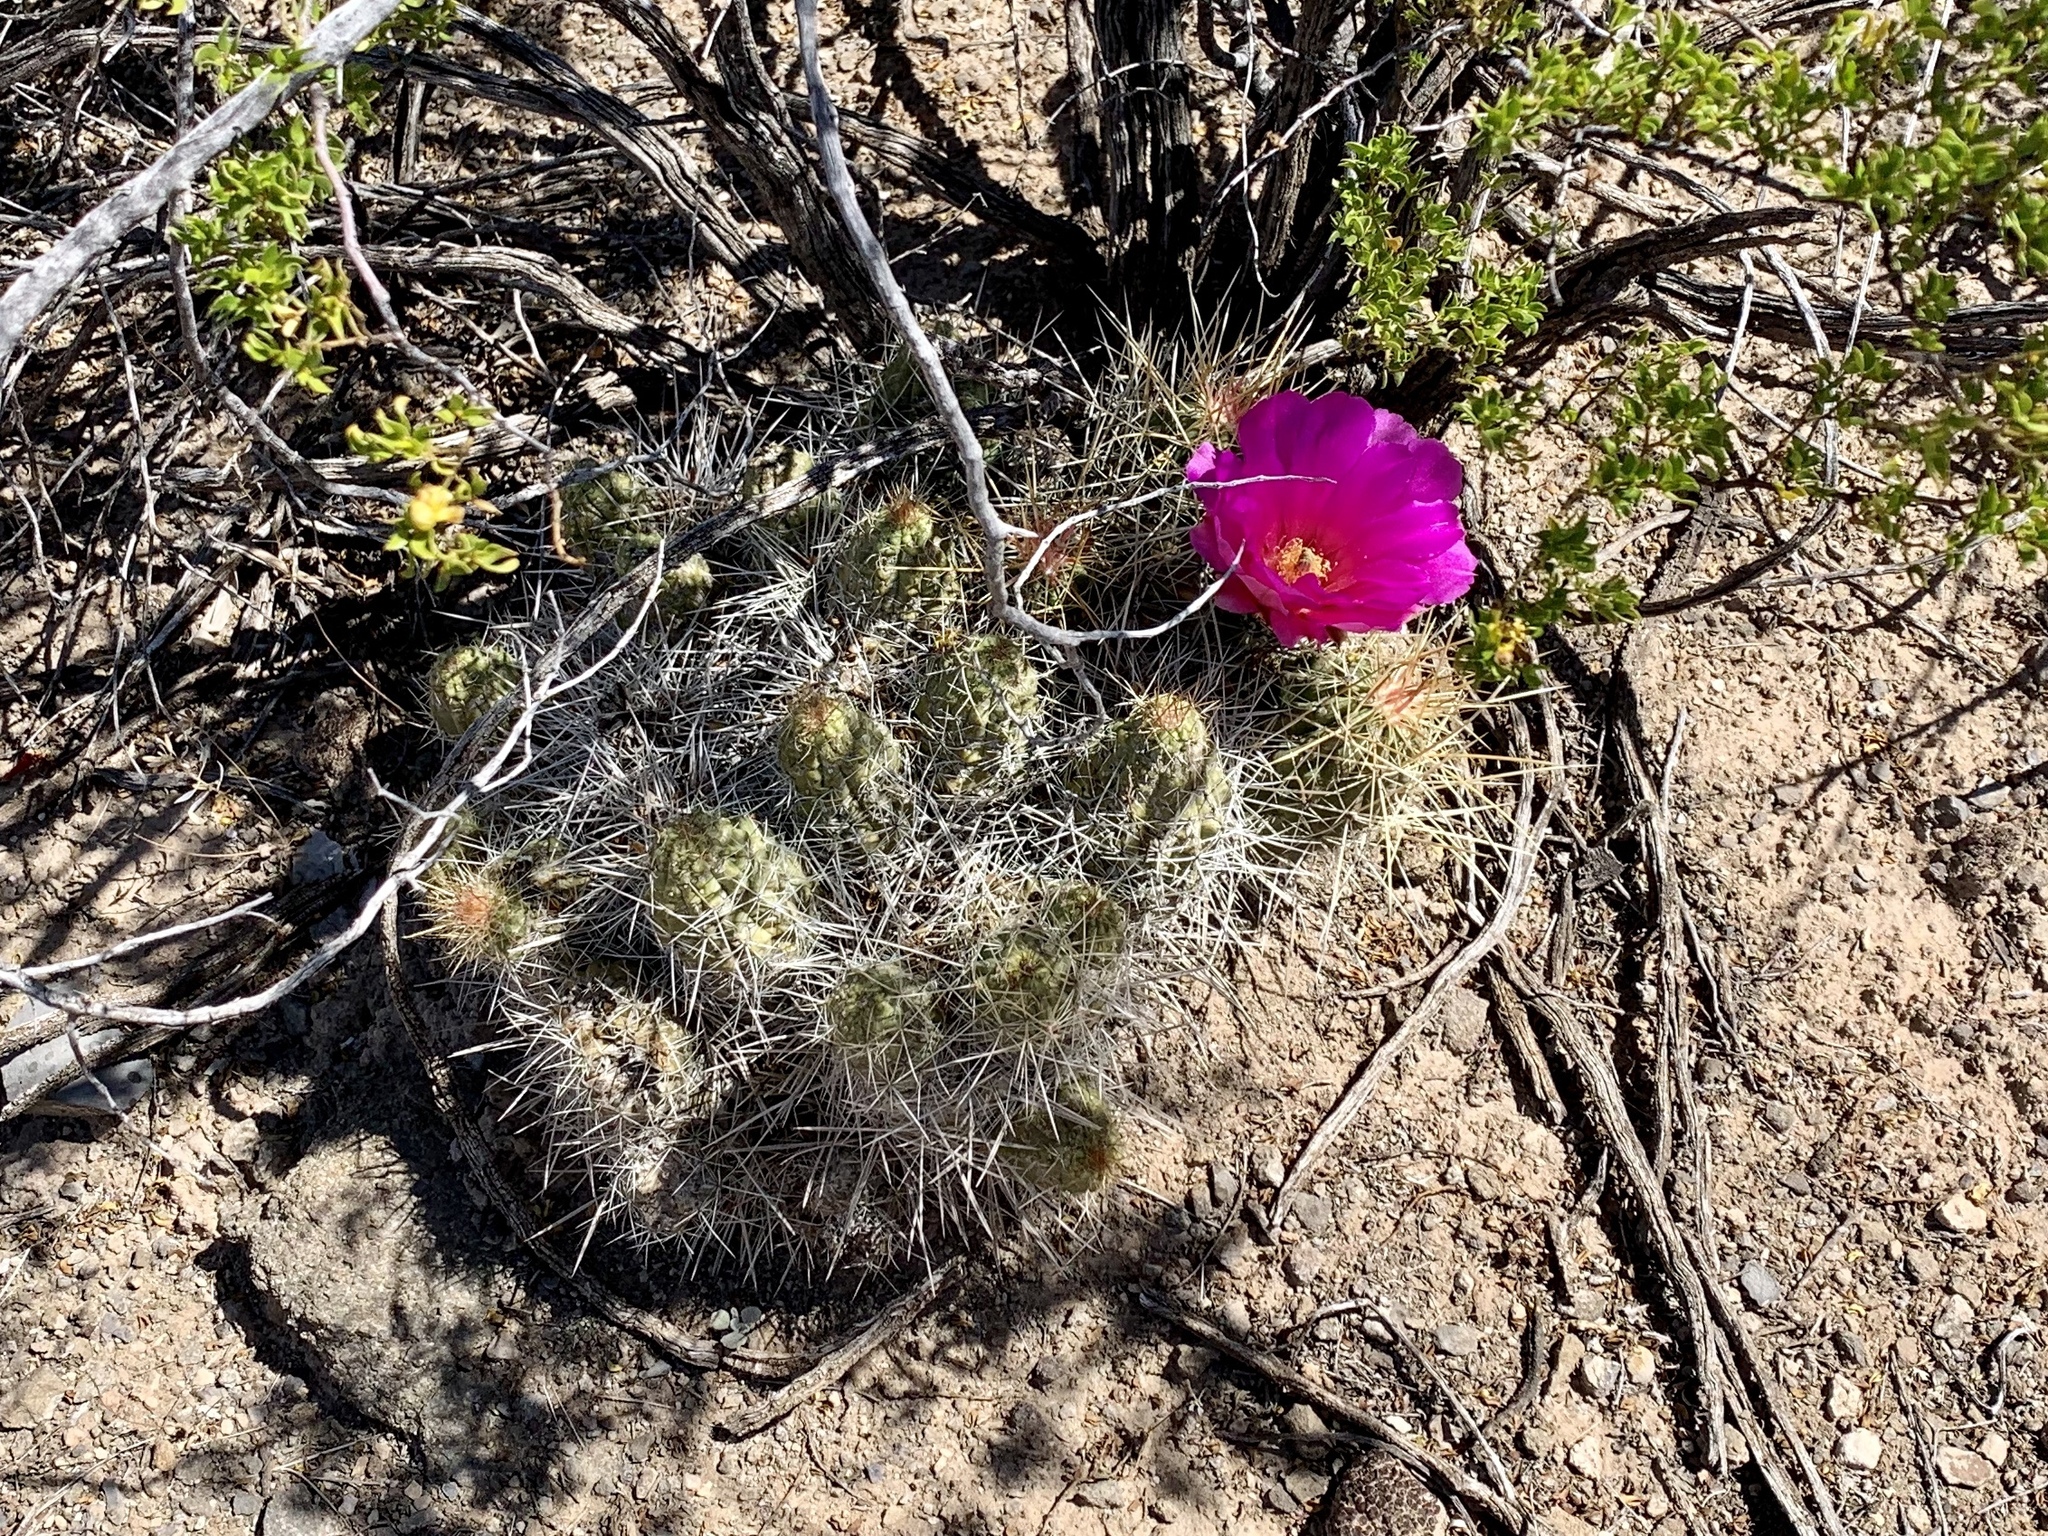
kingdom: Plantae
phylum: Tracheophyta
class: Magnoliopsida
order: Caryophyllales
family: Cactaceae
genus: Echinocereus
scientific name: Echinocereus stramineus
